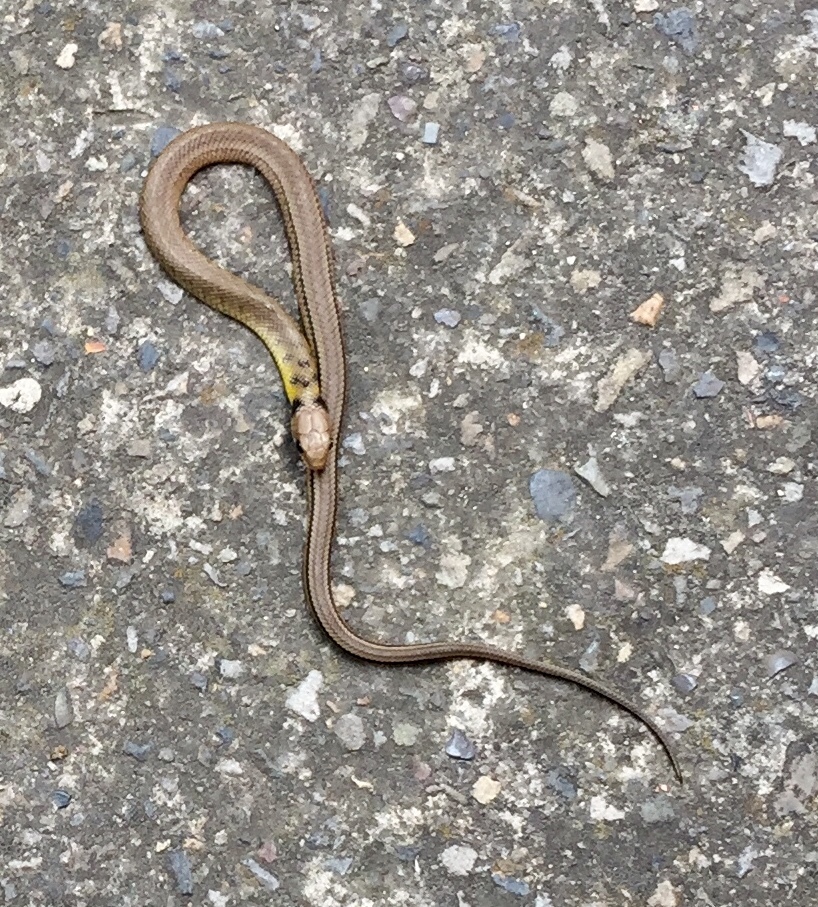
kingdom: Animalia
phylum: Chordata
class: Squamata
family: Colubridae
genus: Erythrolamprus
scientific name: Erythrolamprus epinephalus
